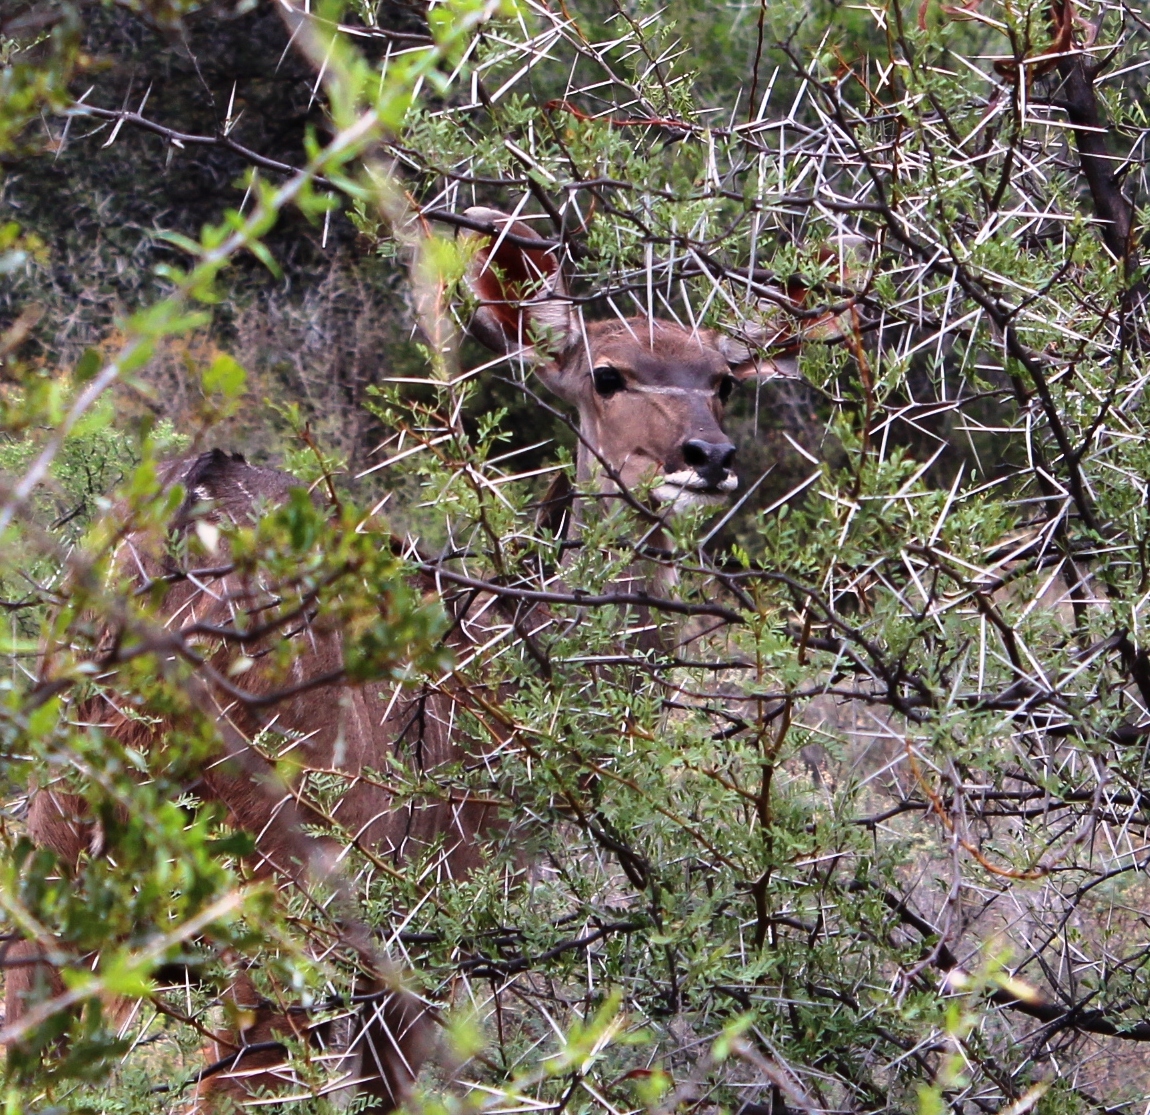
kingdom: Plantae
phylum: Tracheophyta
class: Magnoliopsida
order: Fabales
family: Fabaceae
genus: Vachellia
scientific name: Vachellia karroo
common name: Sweet thorn
